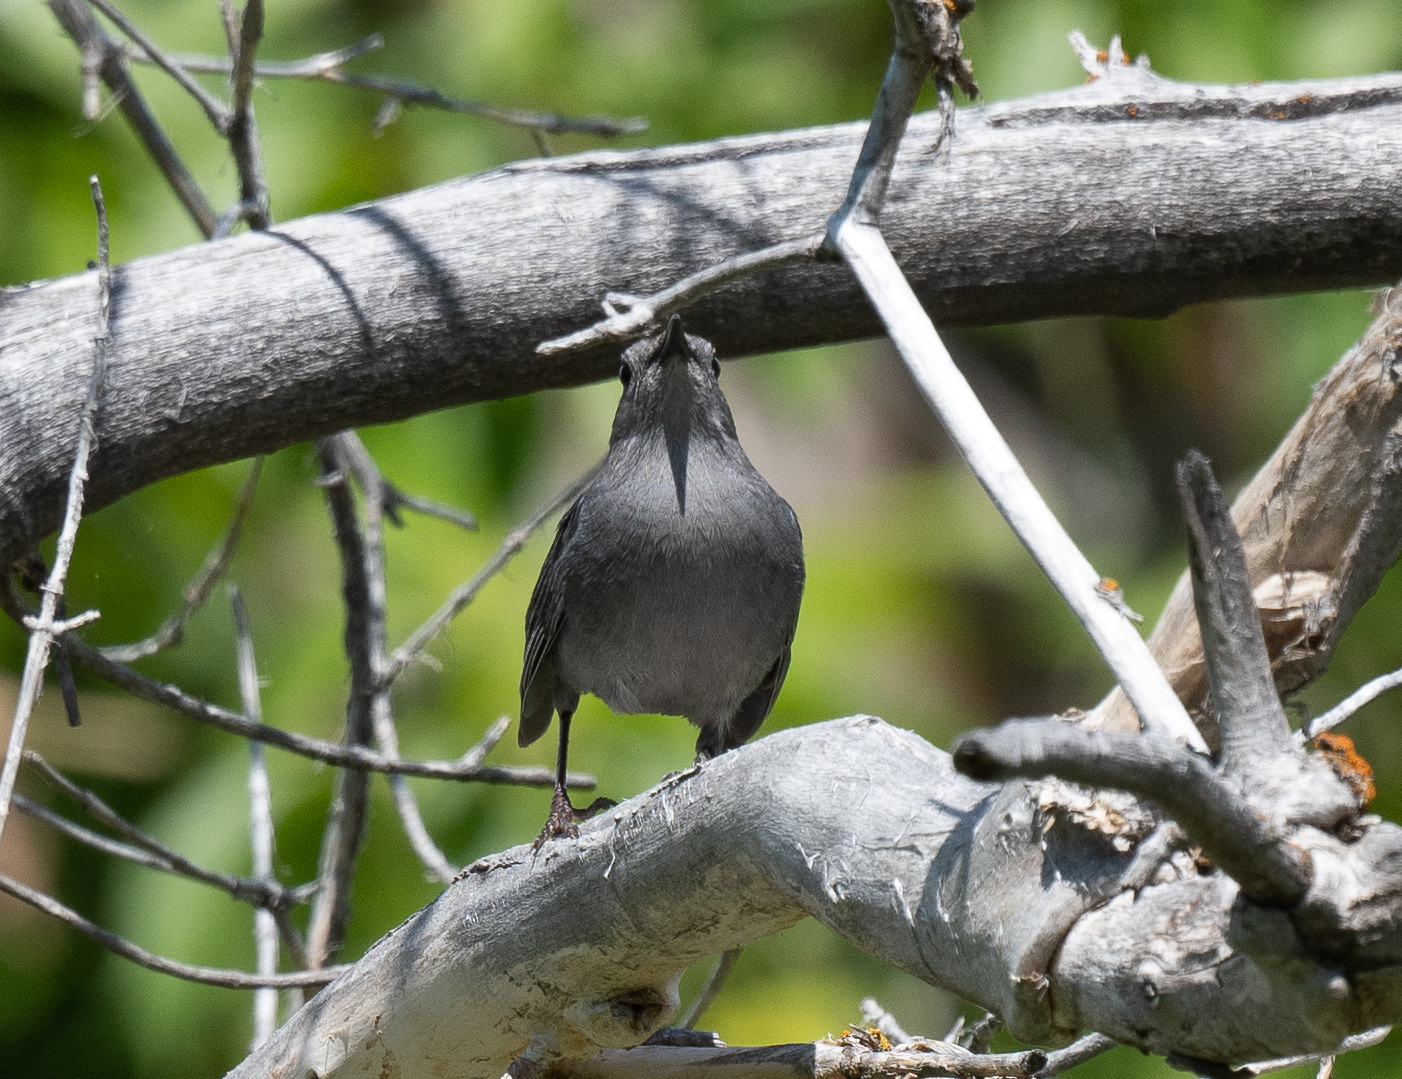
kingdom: Animalia
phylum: Chordata
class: Aves
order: Passeriformes
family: Mimidae
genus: Dumetella
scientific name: Dumetella carolinensis
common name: Gray catbird
